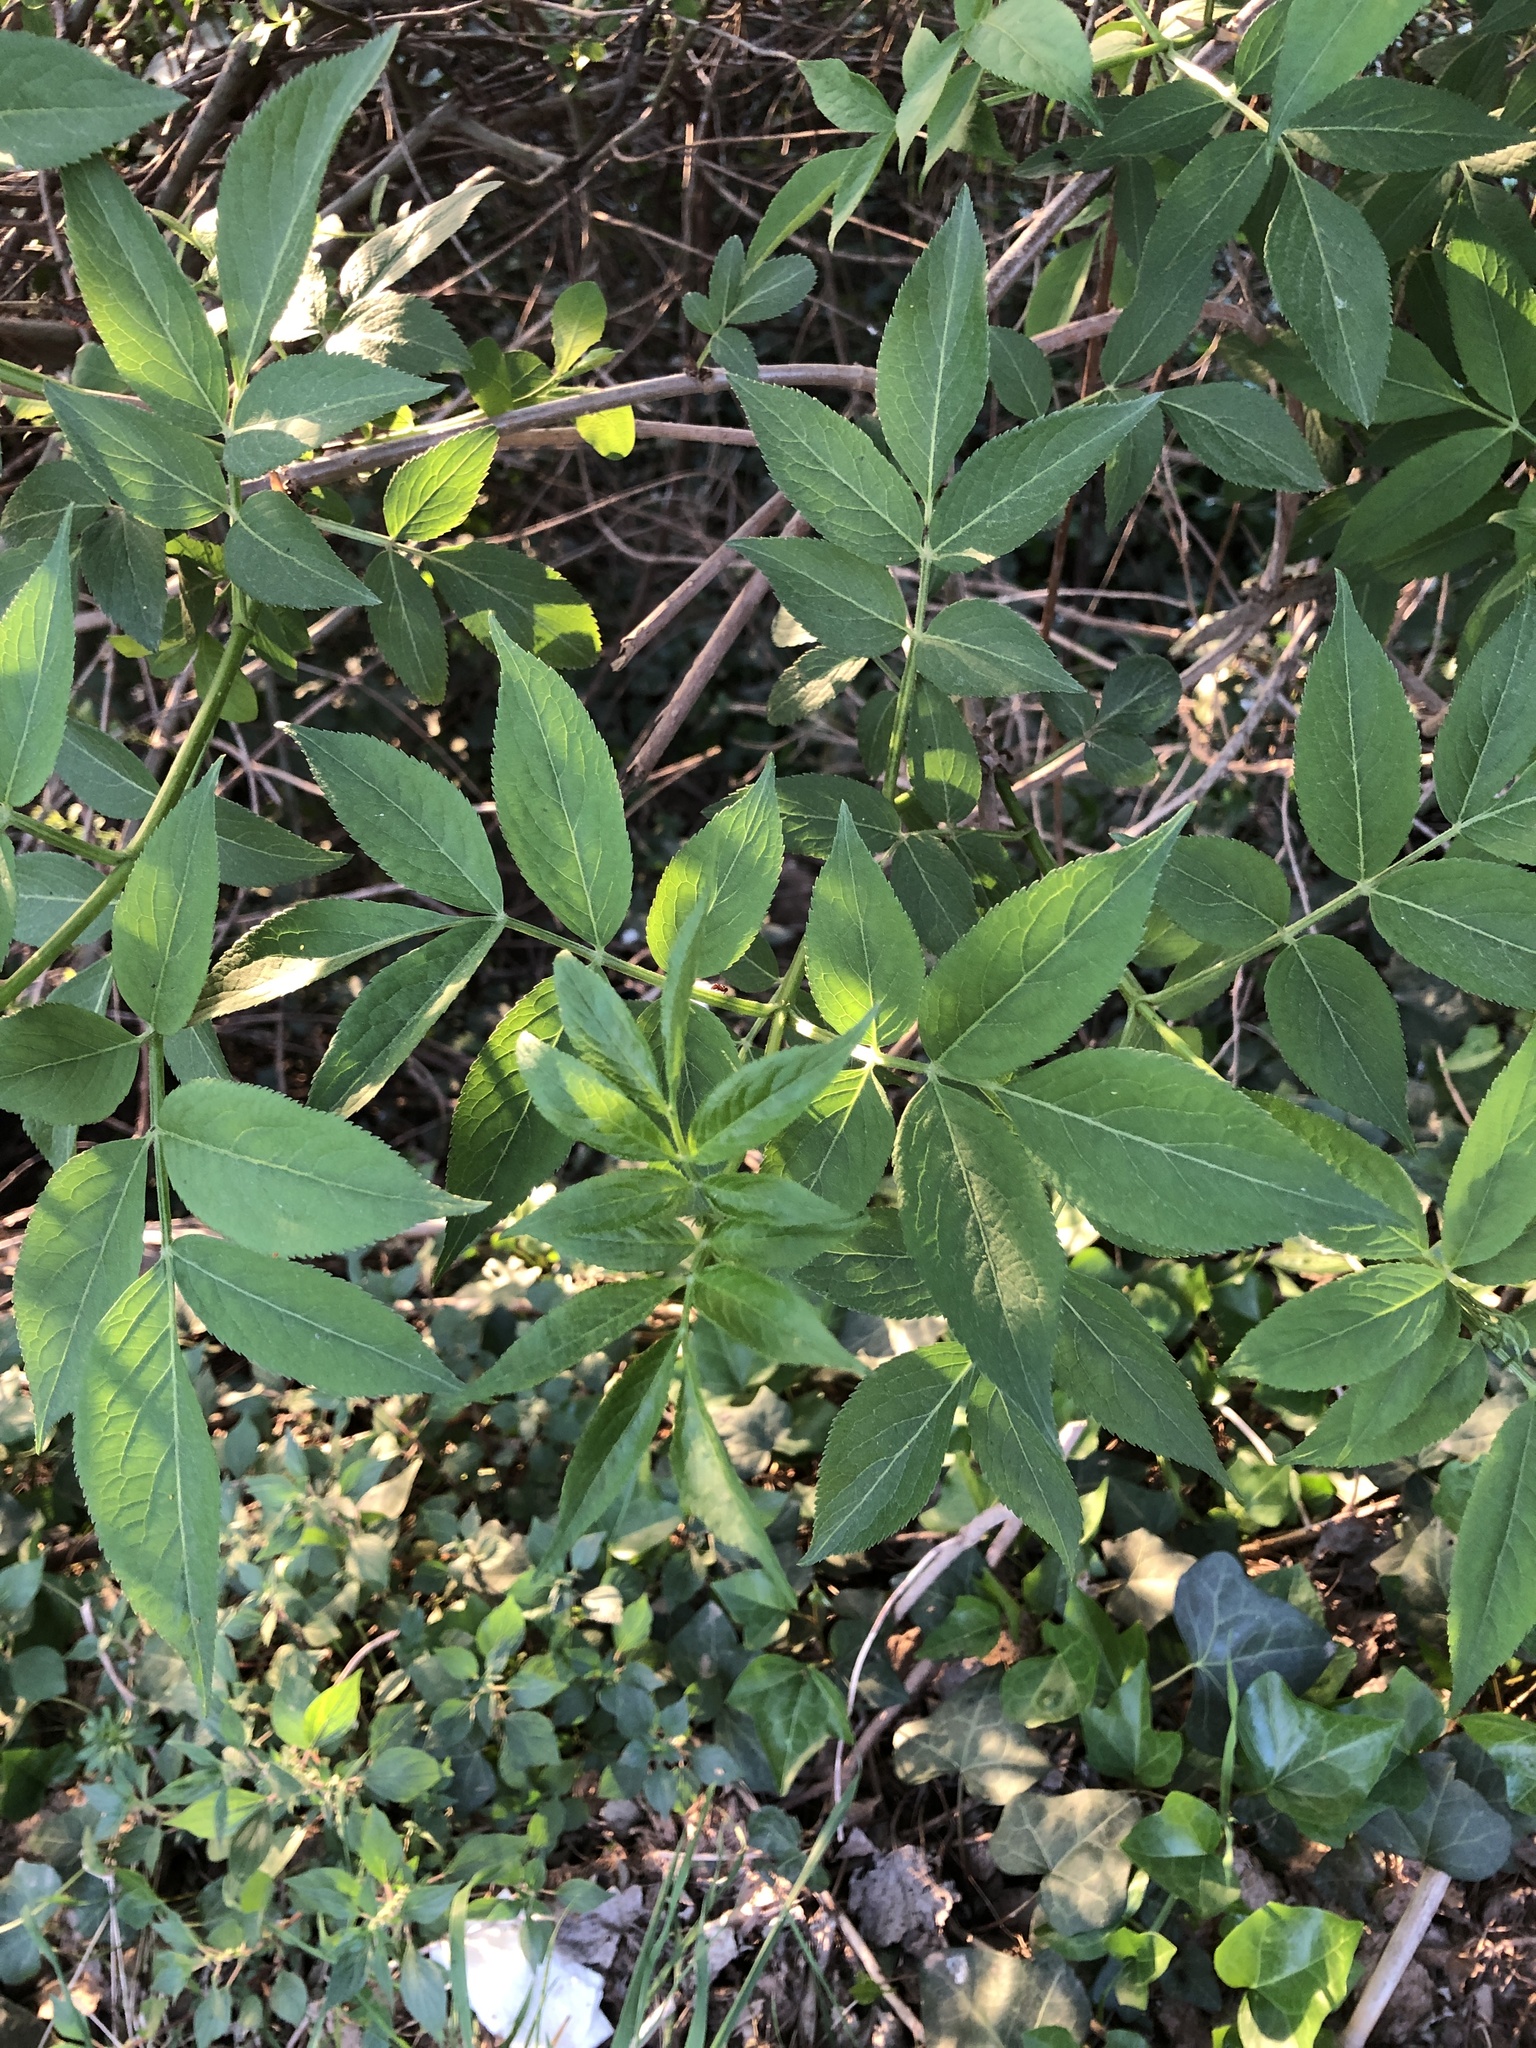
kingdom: Plantae
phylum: Tracheophyta
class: Magnoliopsida
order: Dipsacales
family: Viburnaceae
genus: Sambucus
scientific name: Sambucus nigra
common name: Elder
